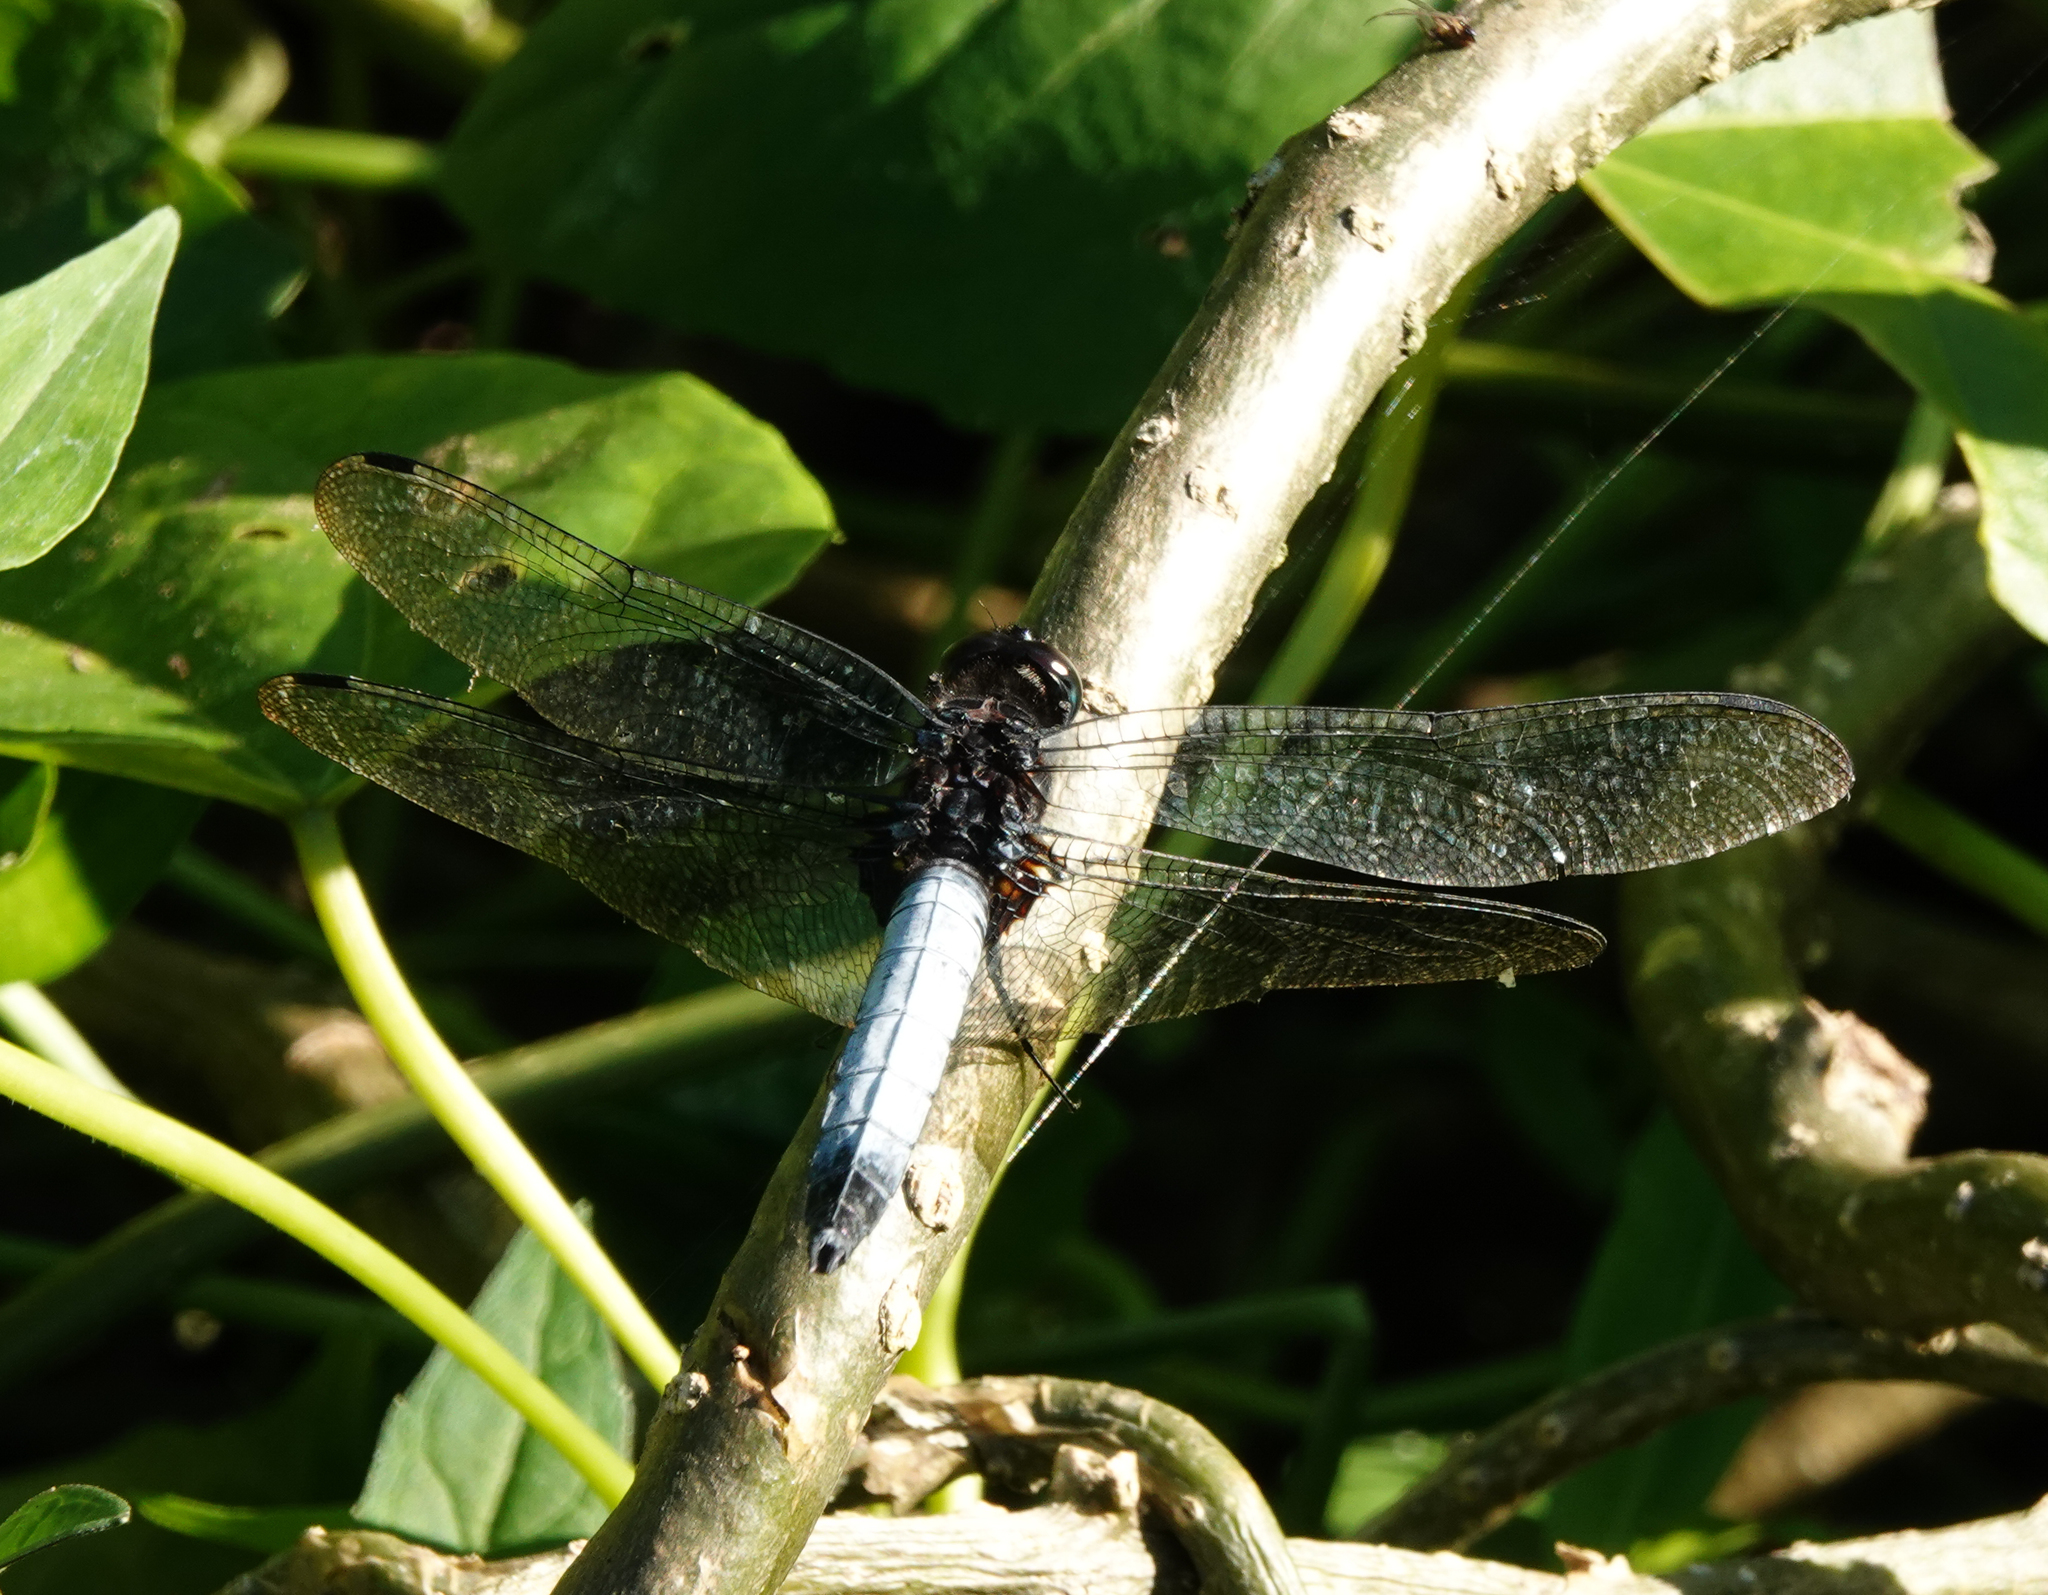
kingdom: Animalia
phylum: Arthropoda
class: Insecta
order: Odonata
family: Libellulidae
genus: Orthetrum
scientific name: Orthetrum triangulare
